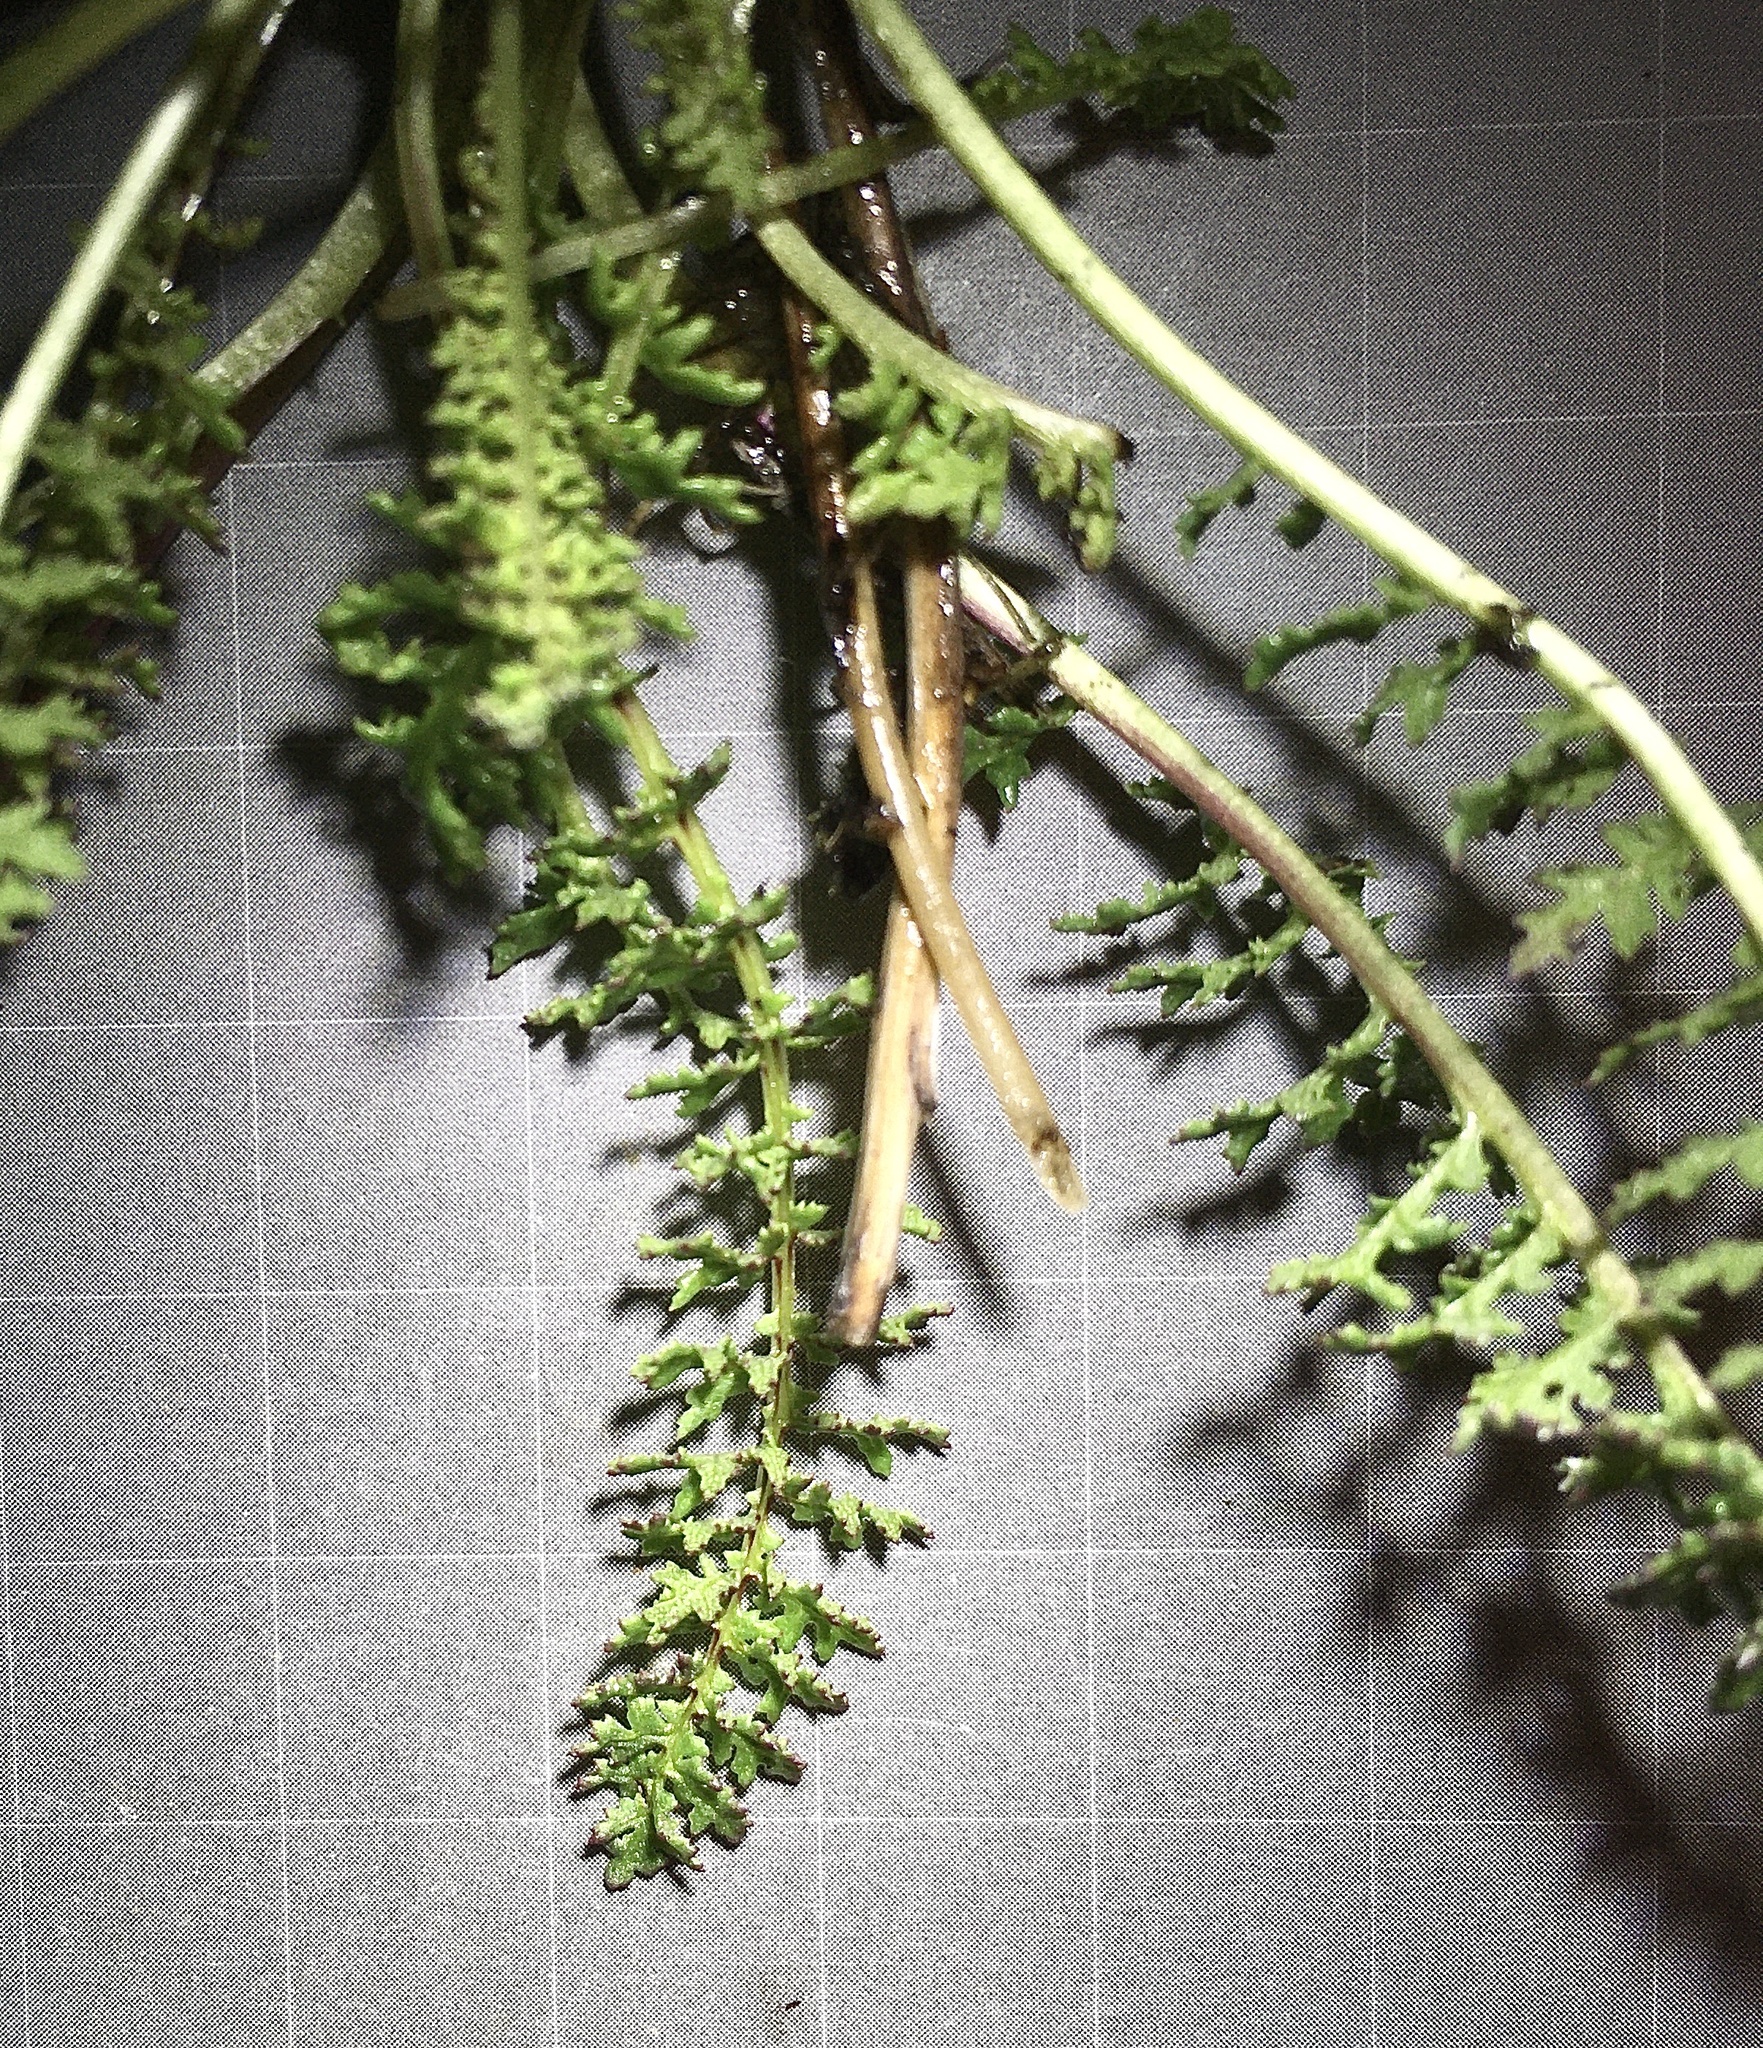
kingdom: Plantae
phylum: Tracheophyta
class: Magnoliopsida
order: Lamiales
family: Orobanchaceae
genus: Pedicularis
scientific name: Pedicularis rostratocapitata
